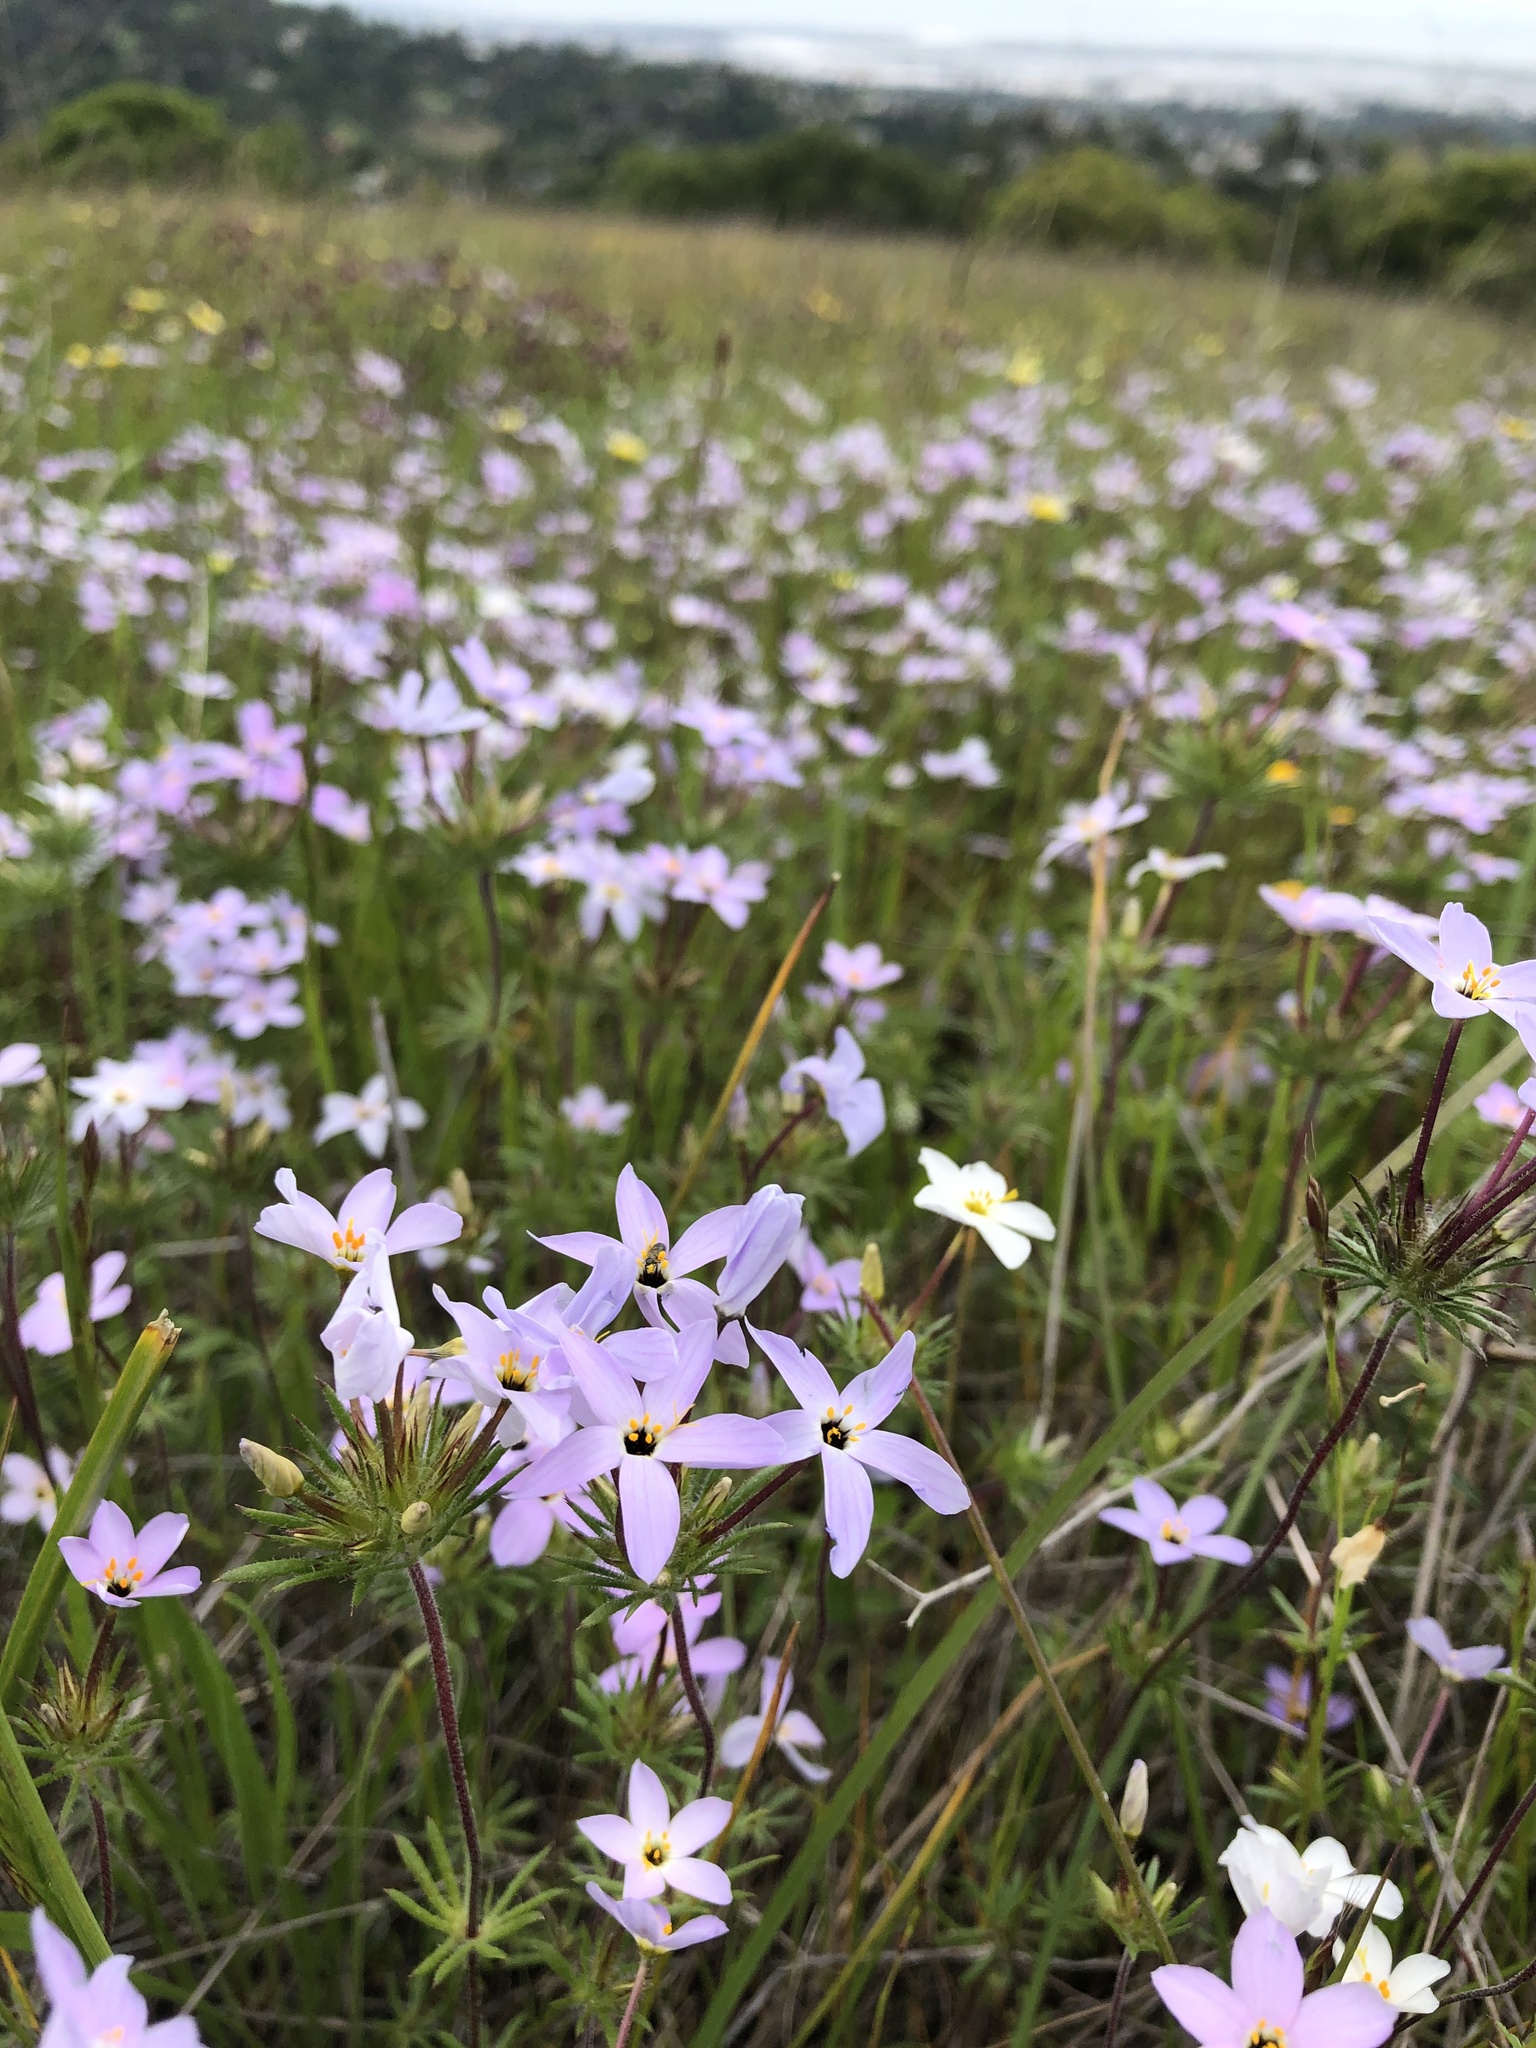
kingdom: Plantae
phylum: Tracheophyta
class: Magnoliopsida
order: Ericales
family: Polemoniaceae
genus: Leptosiphon
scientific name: Leptosiphon androsaceus
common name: False babystars
